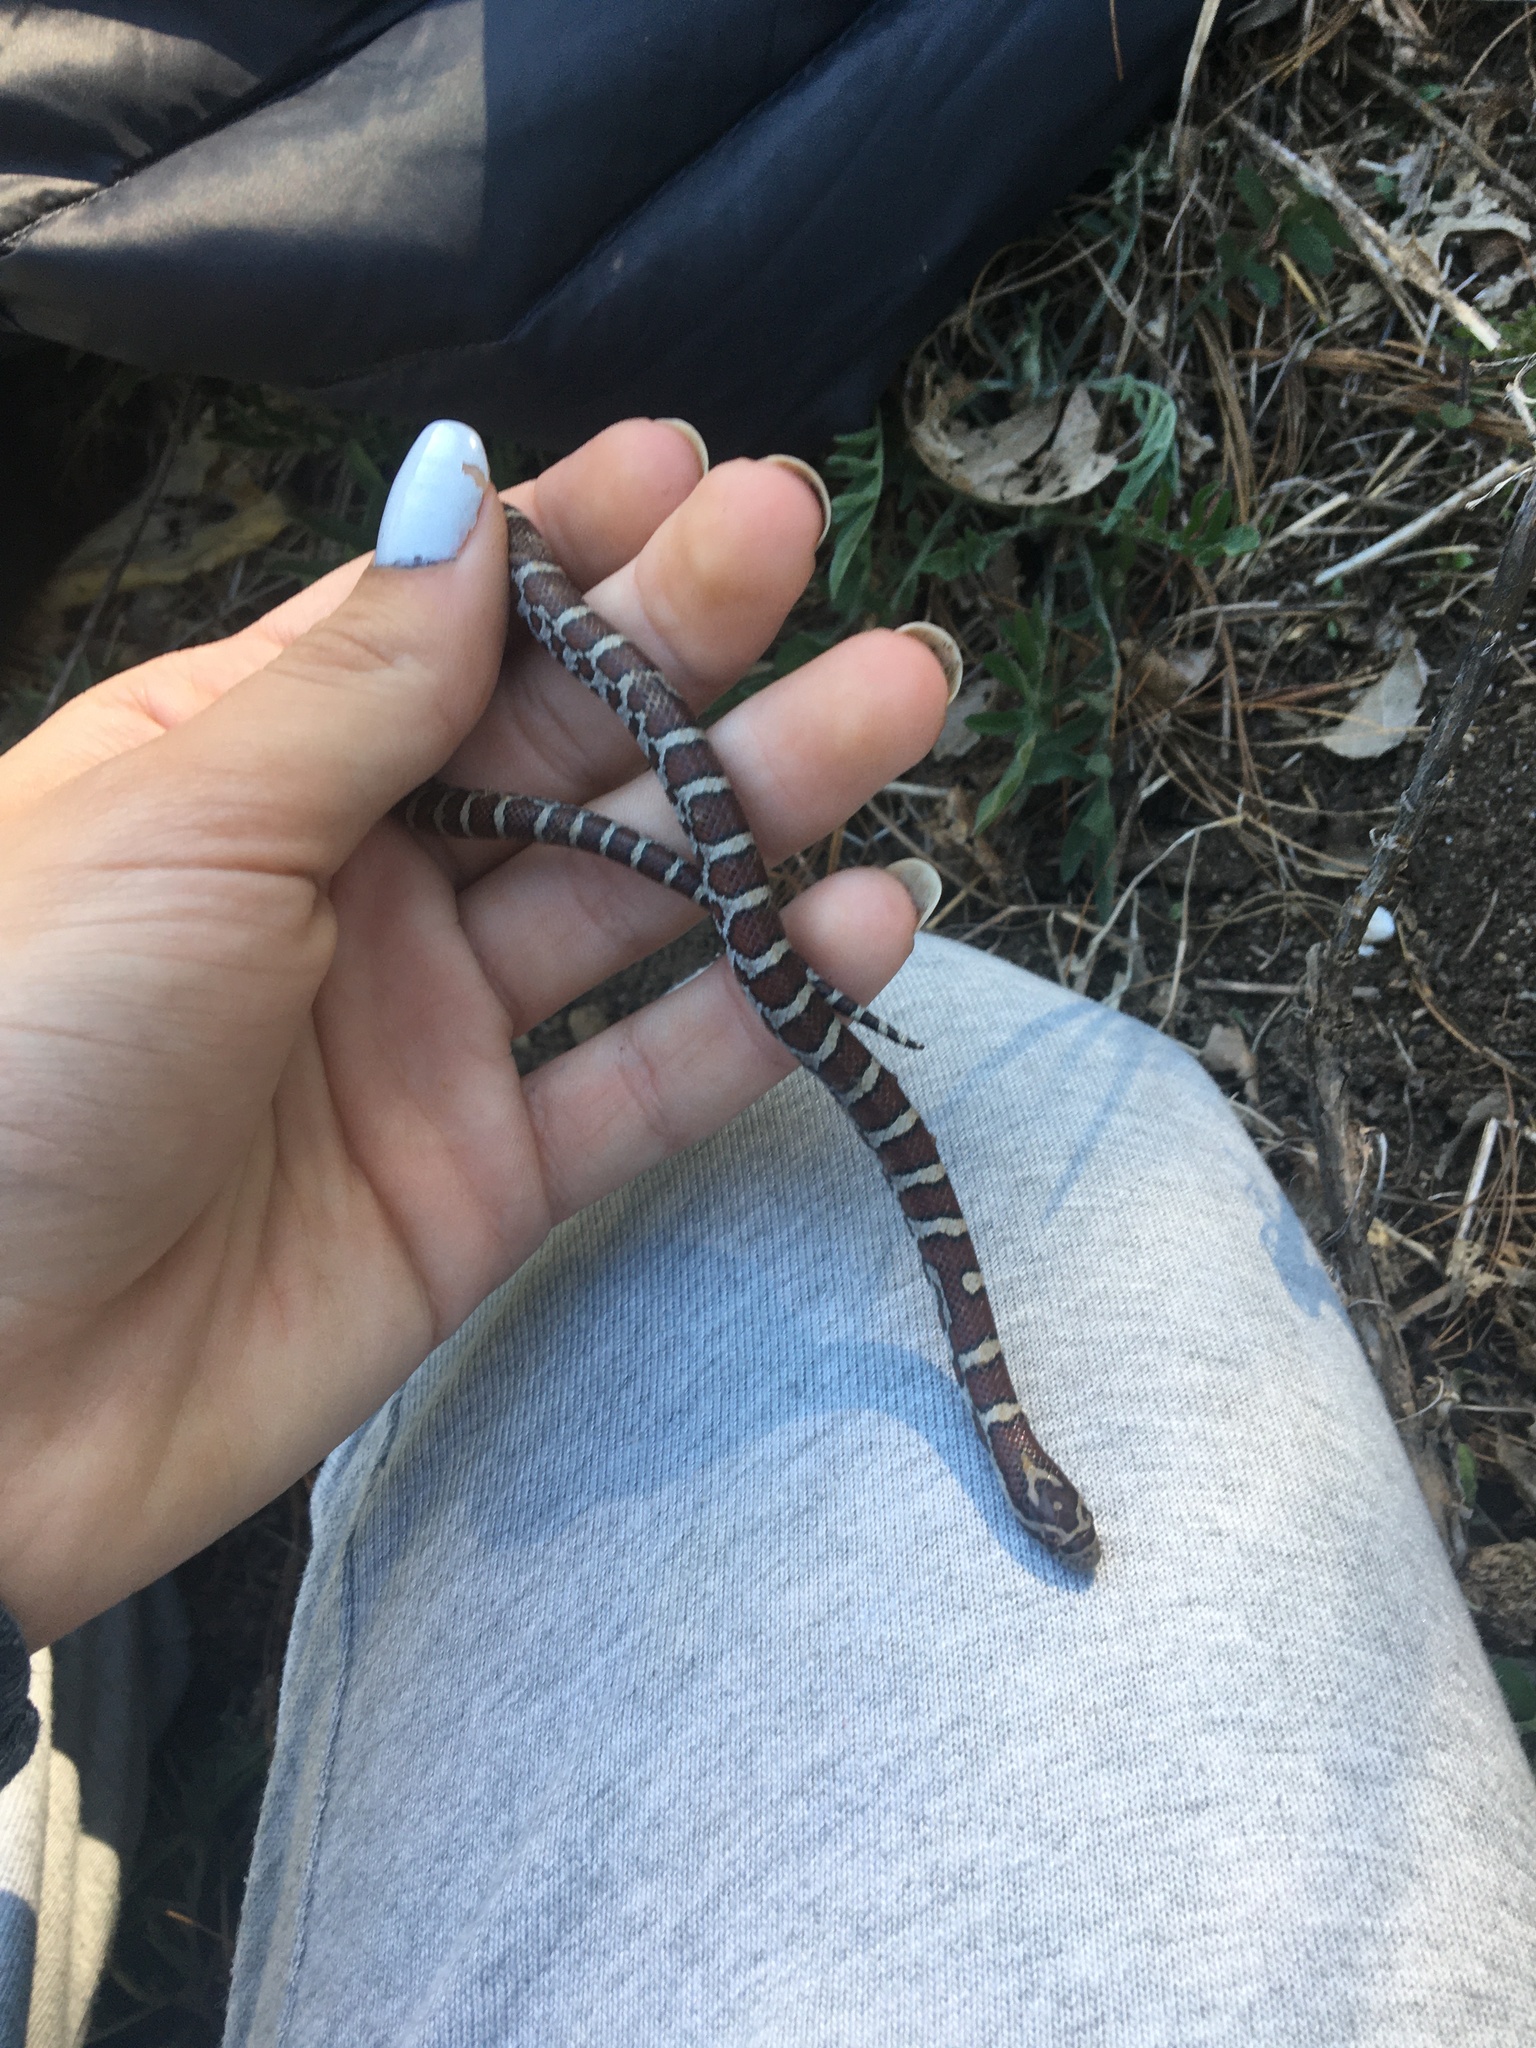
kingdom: Animalia
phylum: Chordata
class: Squamata
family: Colubridae
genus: Lampropeltis
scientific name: Lampropeltis triangulum
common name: Eastern milksnake
